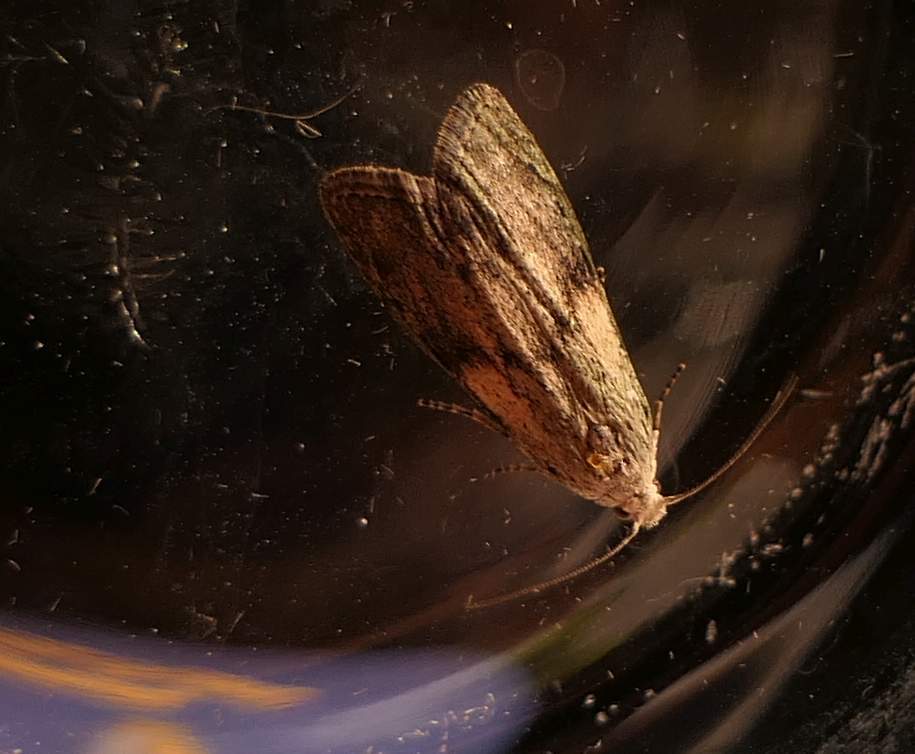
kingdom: Animalia
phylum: Arthropoda
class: Insecta
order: Lepidoptera
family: Pyralidae
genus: Aphomia
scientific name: Aphomia sociella
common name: Bee moth
